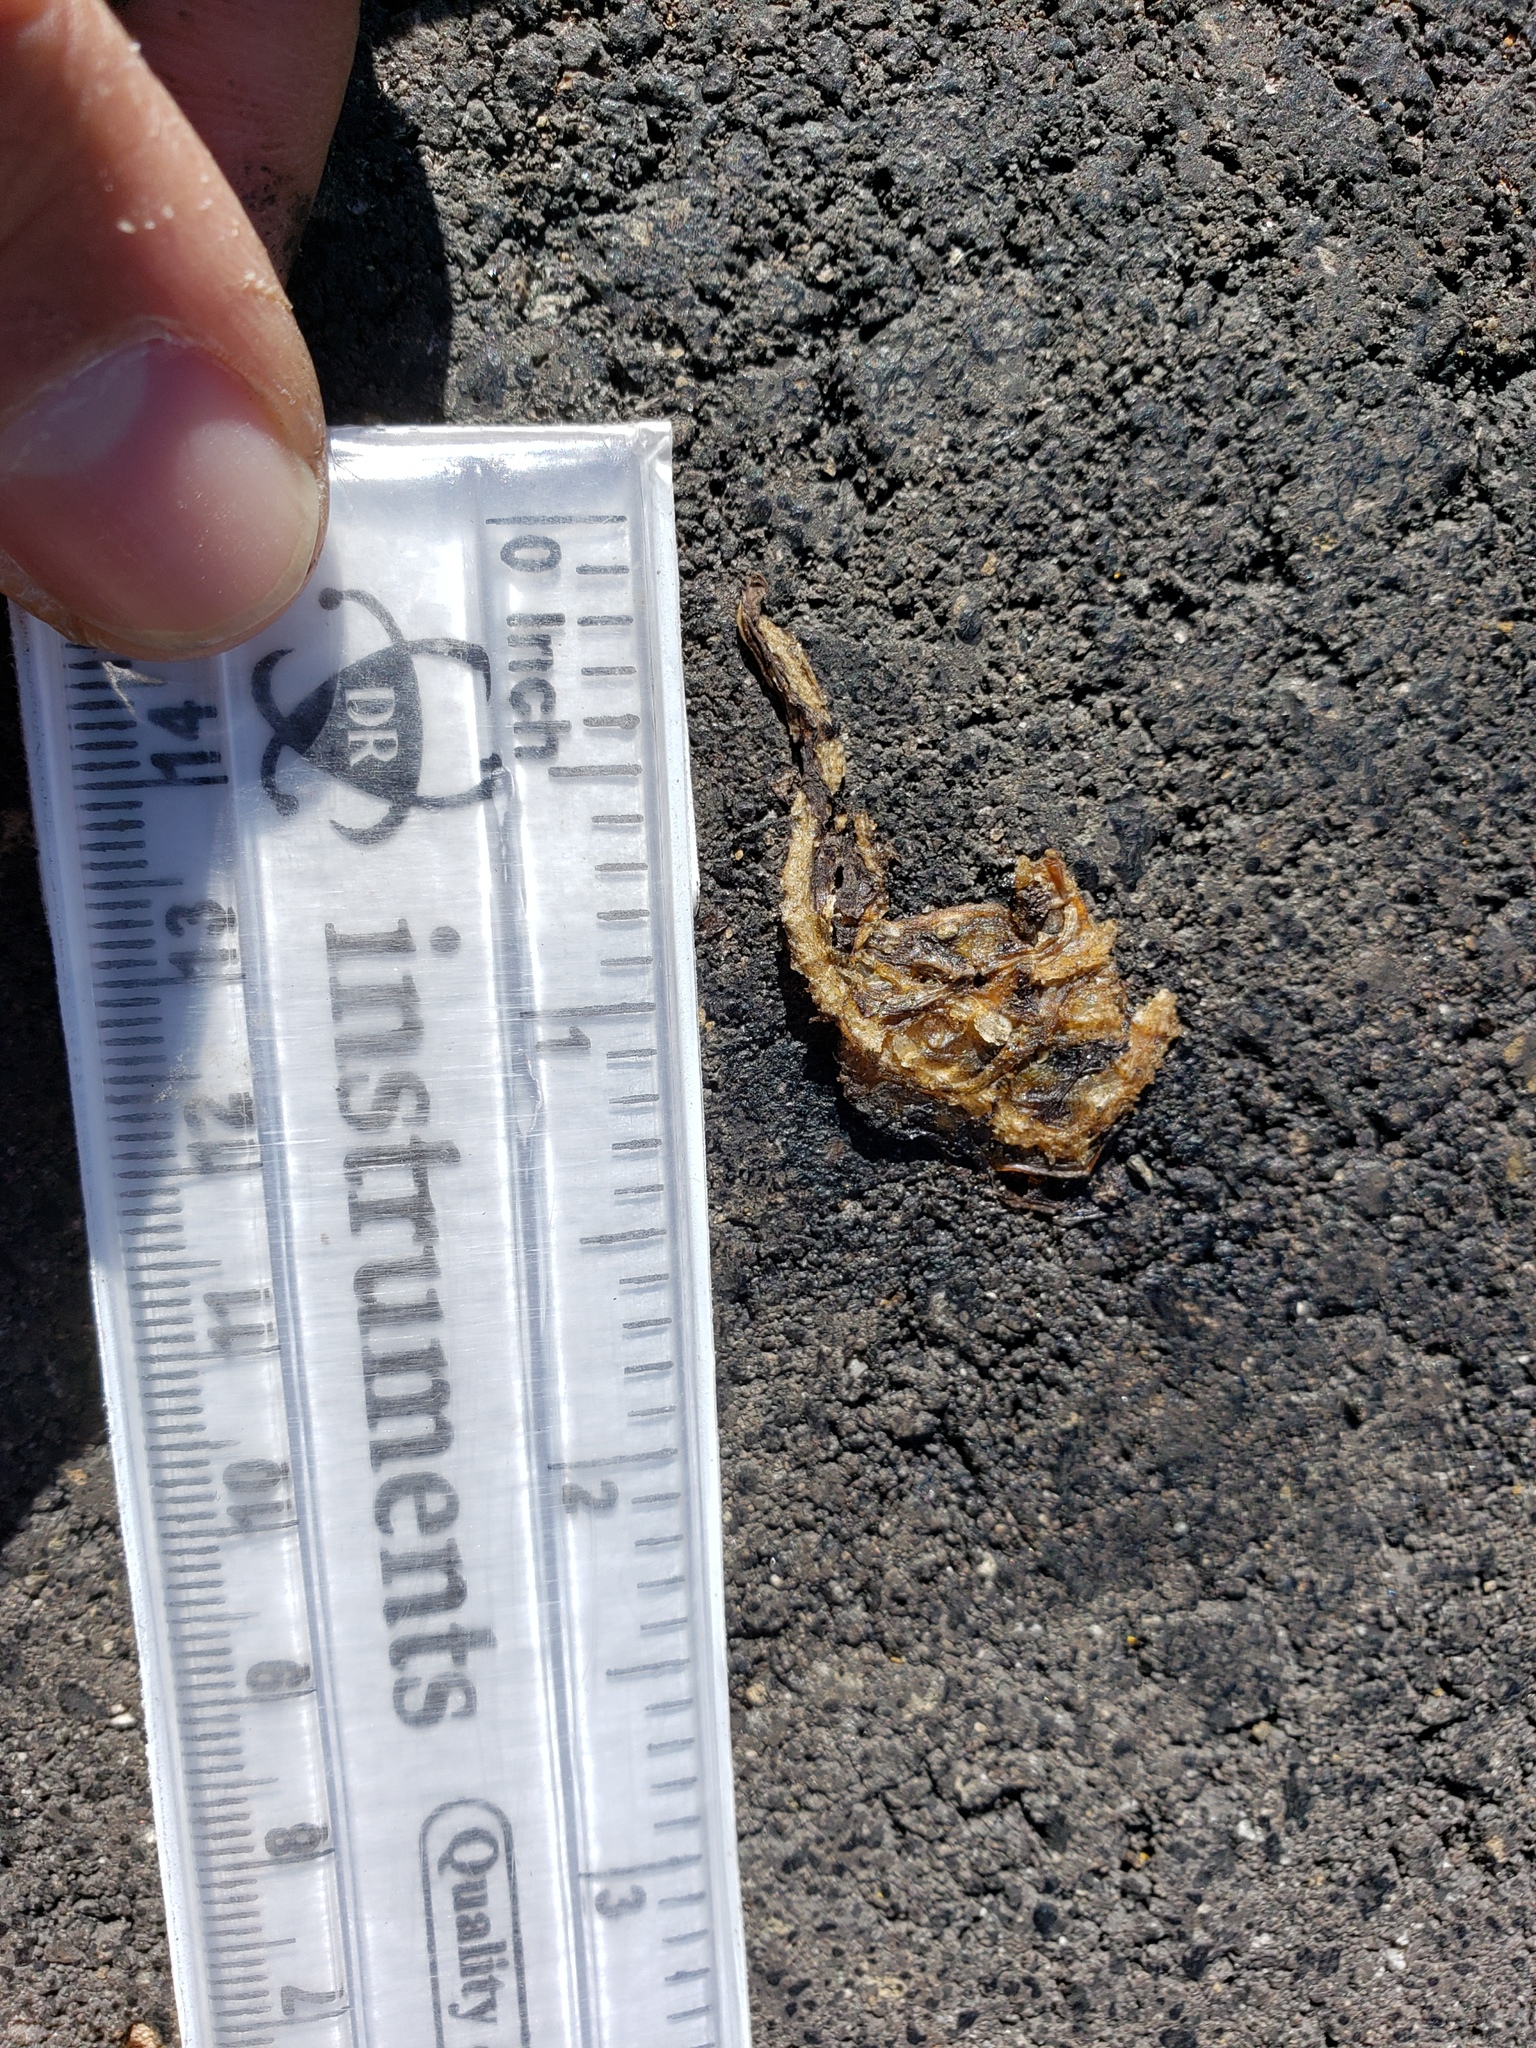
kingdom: Animalia
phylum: Chordata
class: Amphibia
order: Caudata
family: Salamandridae
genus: Taricha
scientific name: Taricha
